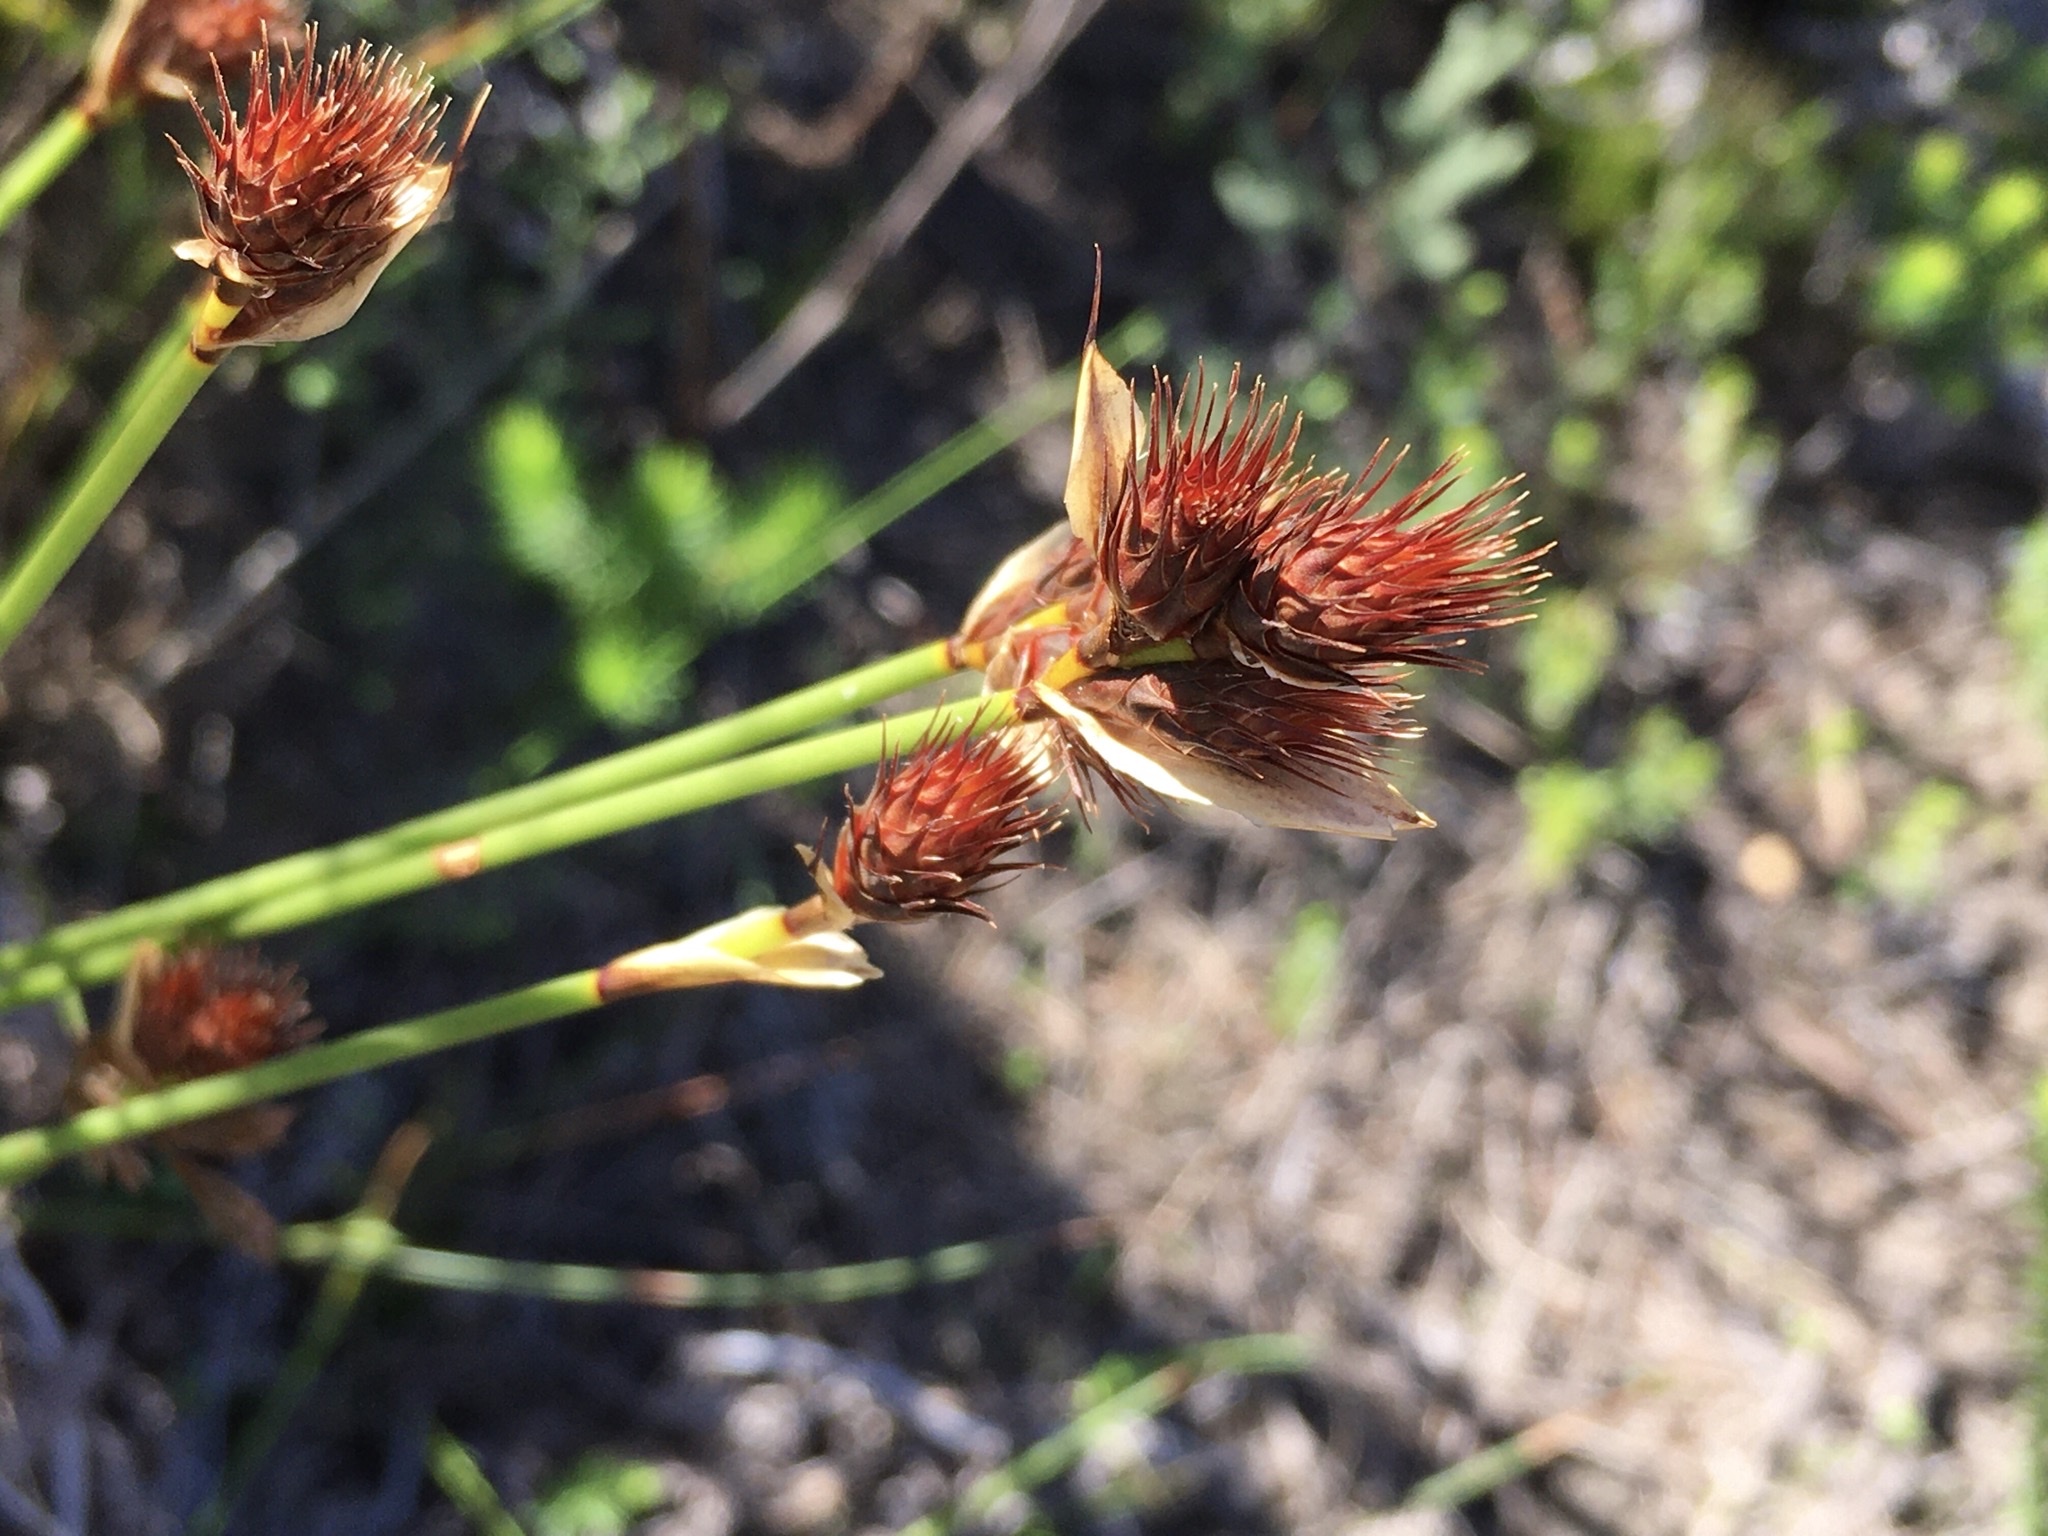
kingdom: Plantae
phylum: Tracheophyta
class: Liliopsida
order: Poales
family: Restionaceae
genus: Hypodiscus
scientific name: Hypodiscus aristatus
